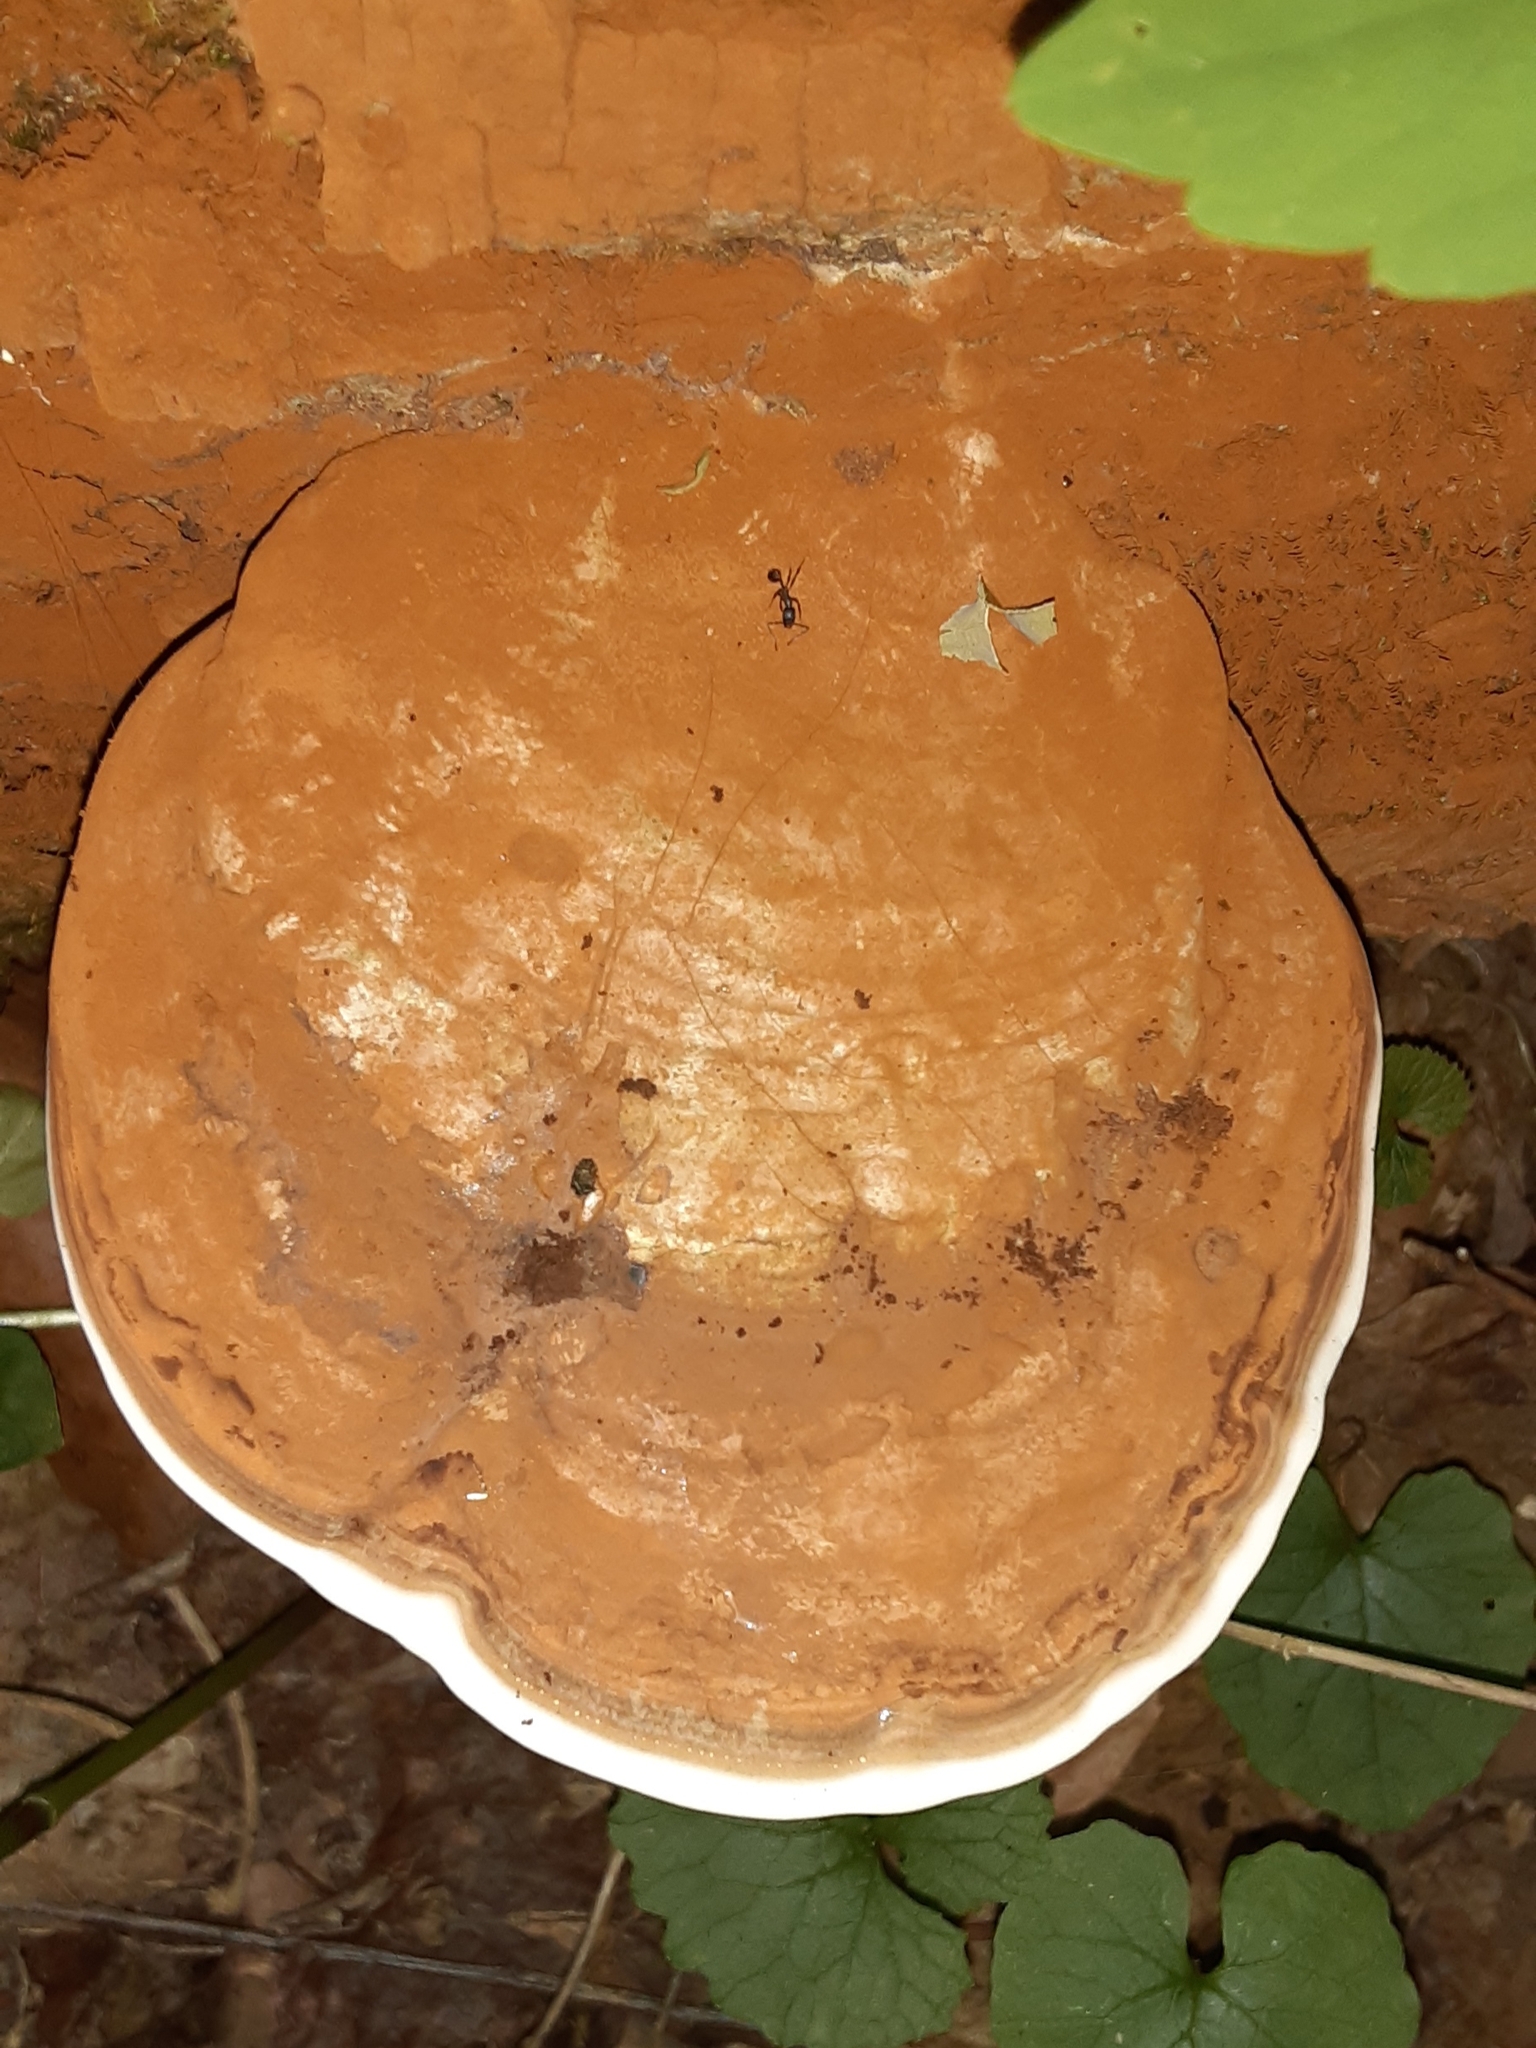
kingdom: Fungi
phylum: Basidiomycota
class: Agaricomycetes
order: Polyporales
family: Polyporaceae
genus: Ganoderma
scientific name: Ganoderma applanatum
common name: Artist's bracket
